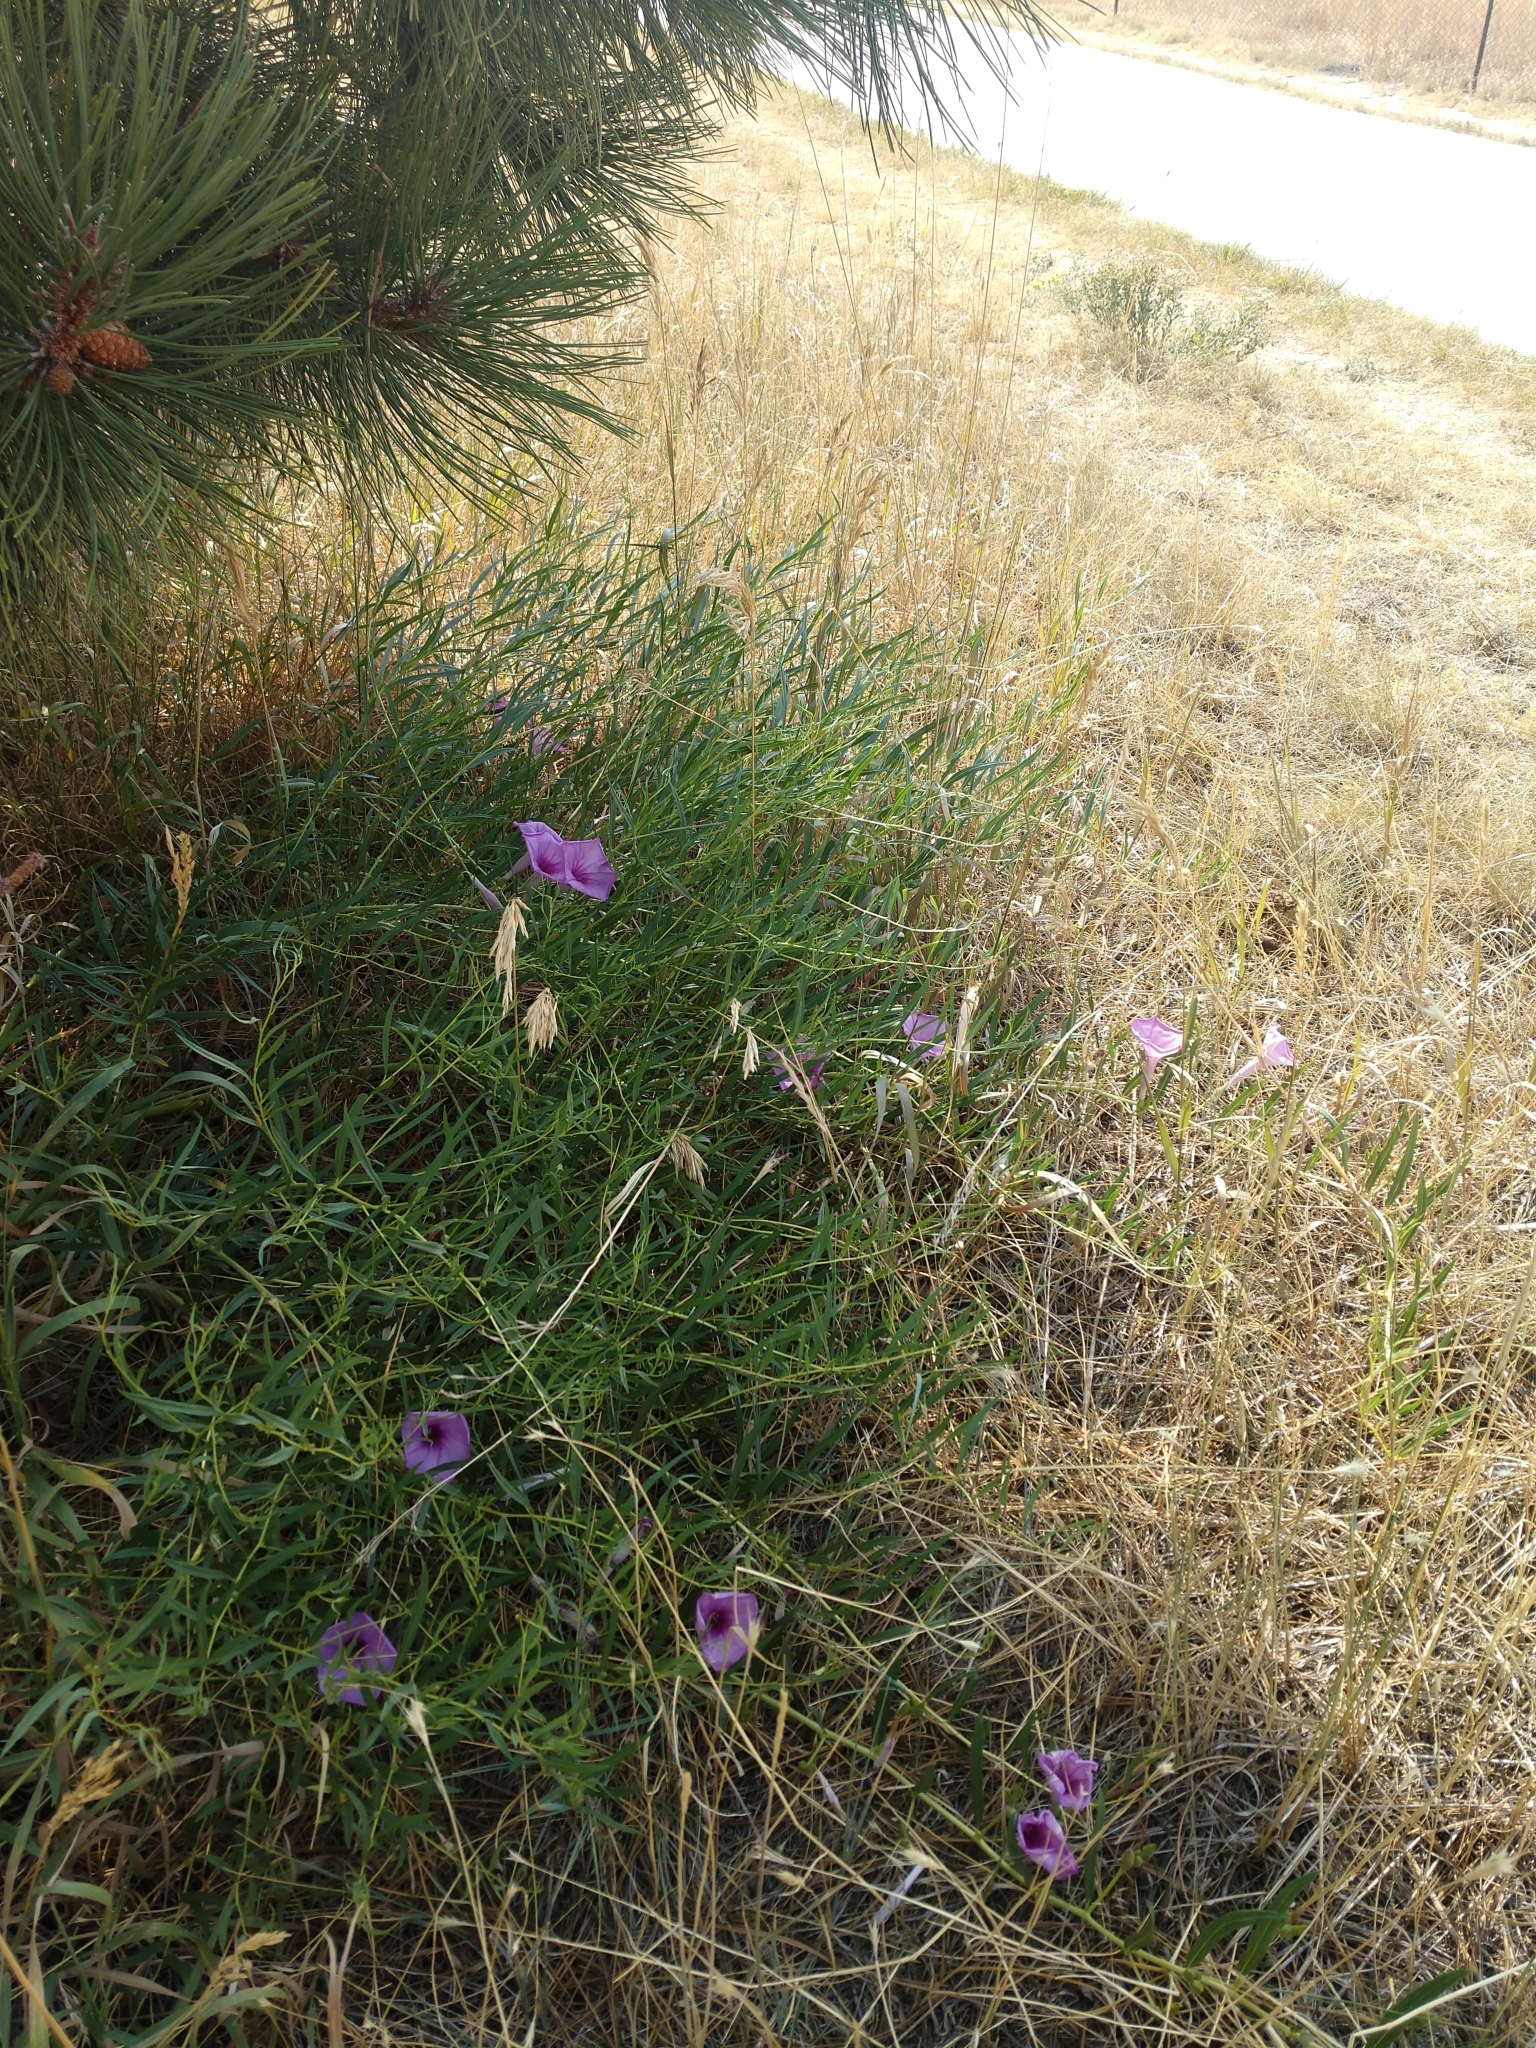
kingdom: Plantae
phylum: Tracheophyta
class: Magnoliopsida
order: Solanales
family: Convolvulaceae
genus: Ipomoea
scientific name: Ipomoea leptophylla
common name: Bush moonflower
